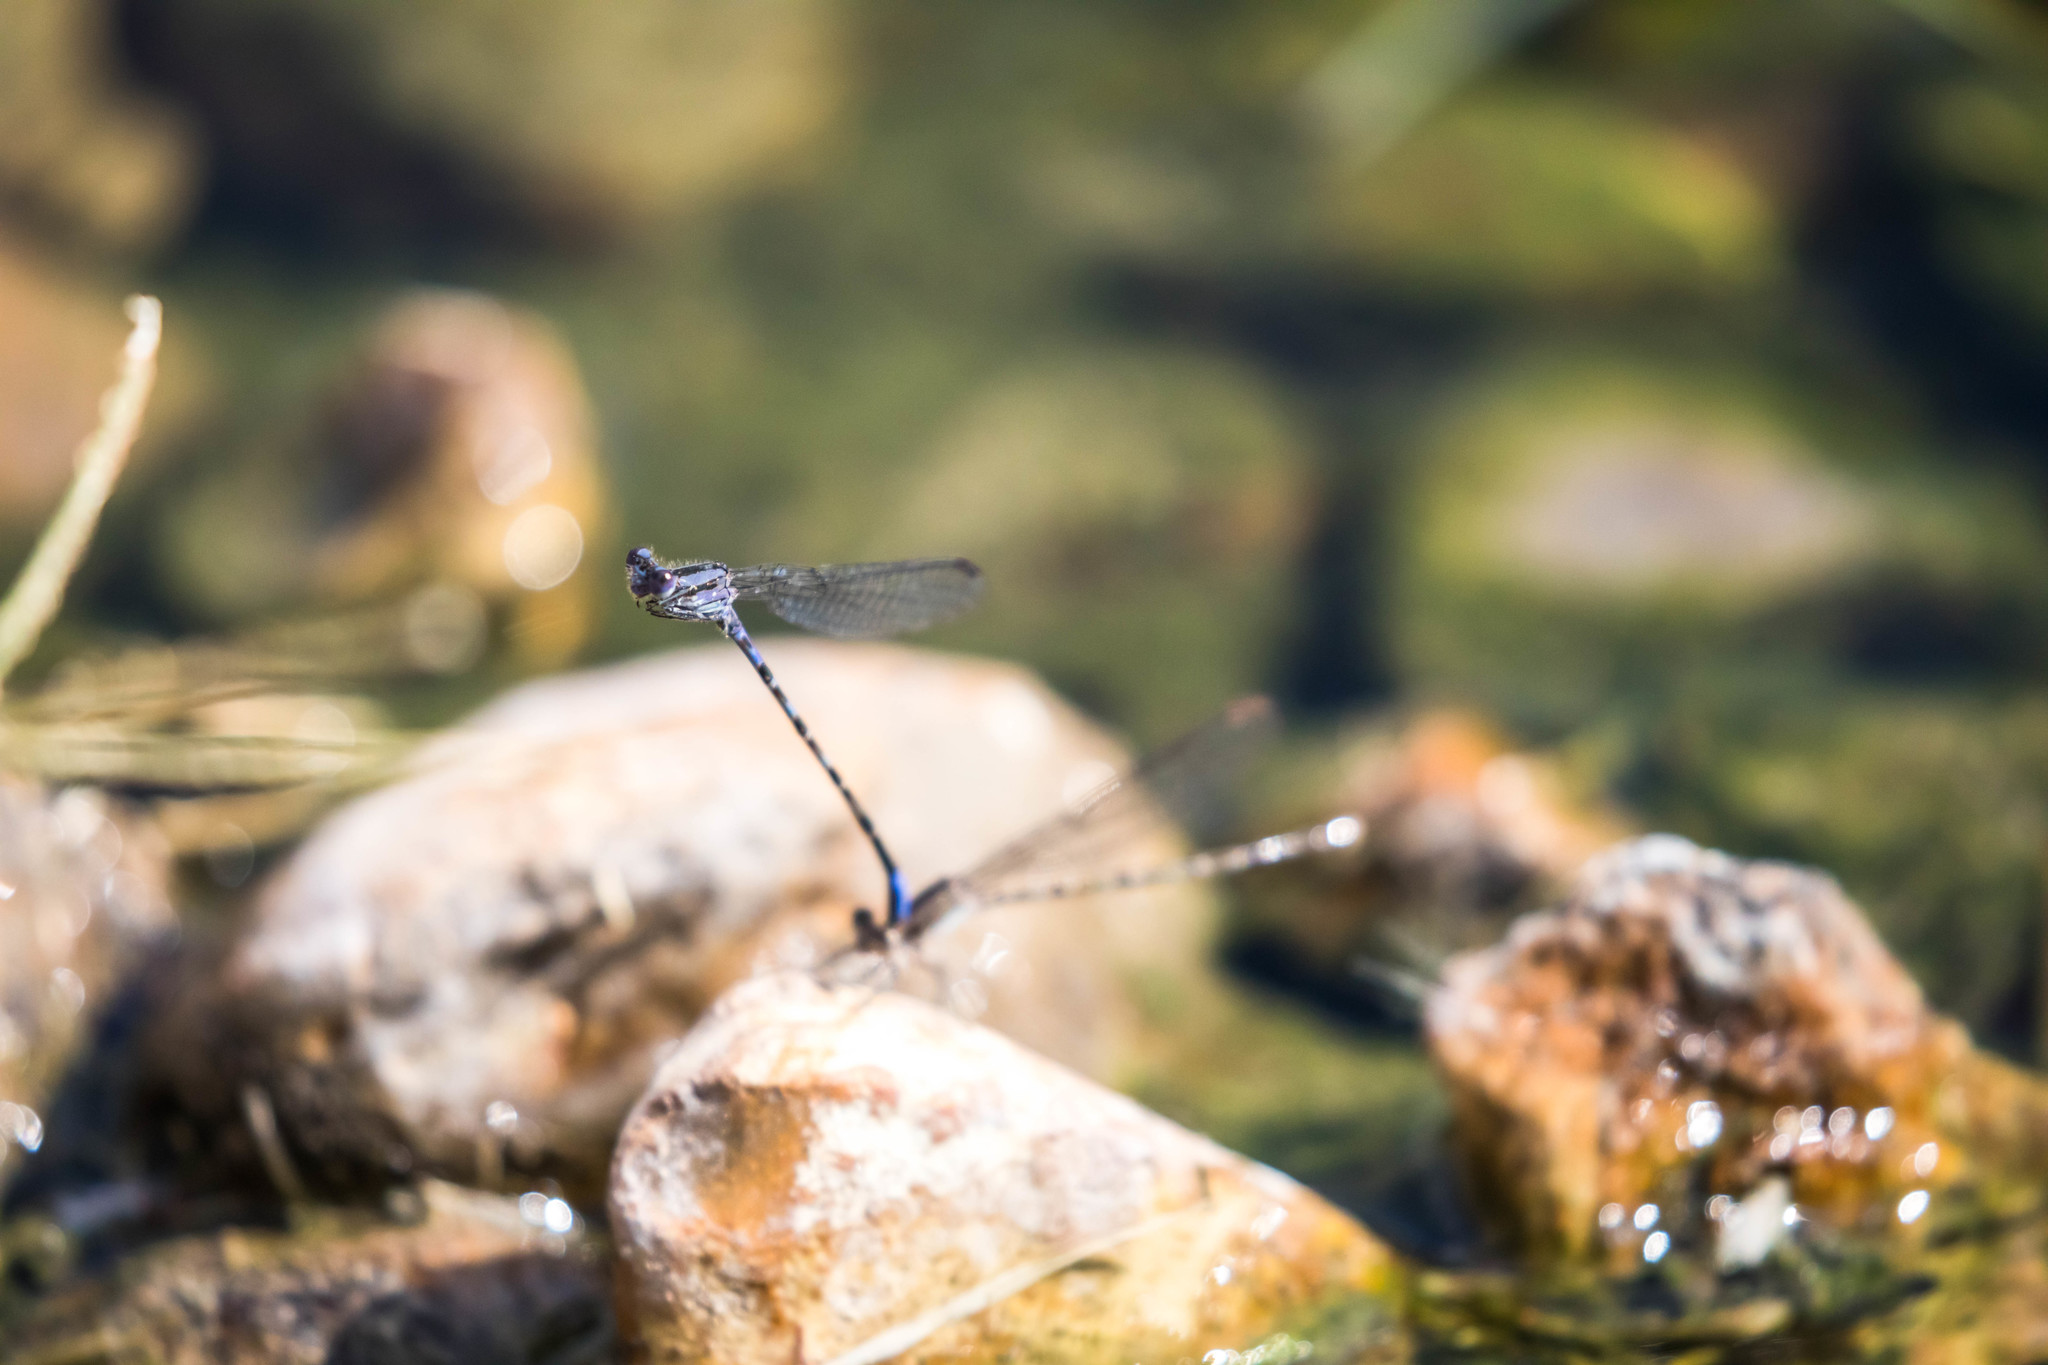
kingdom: Animalia
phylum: Arthropoda
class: Insecta
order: Odonata
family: Coenagrionidae
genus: Argia
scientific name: Argia immunda
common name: Kiowa dancer
